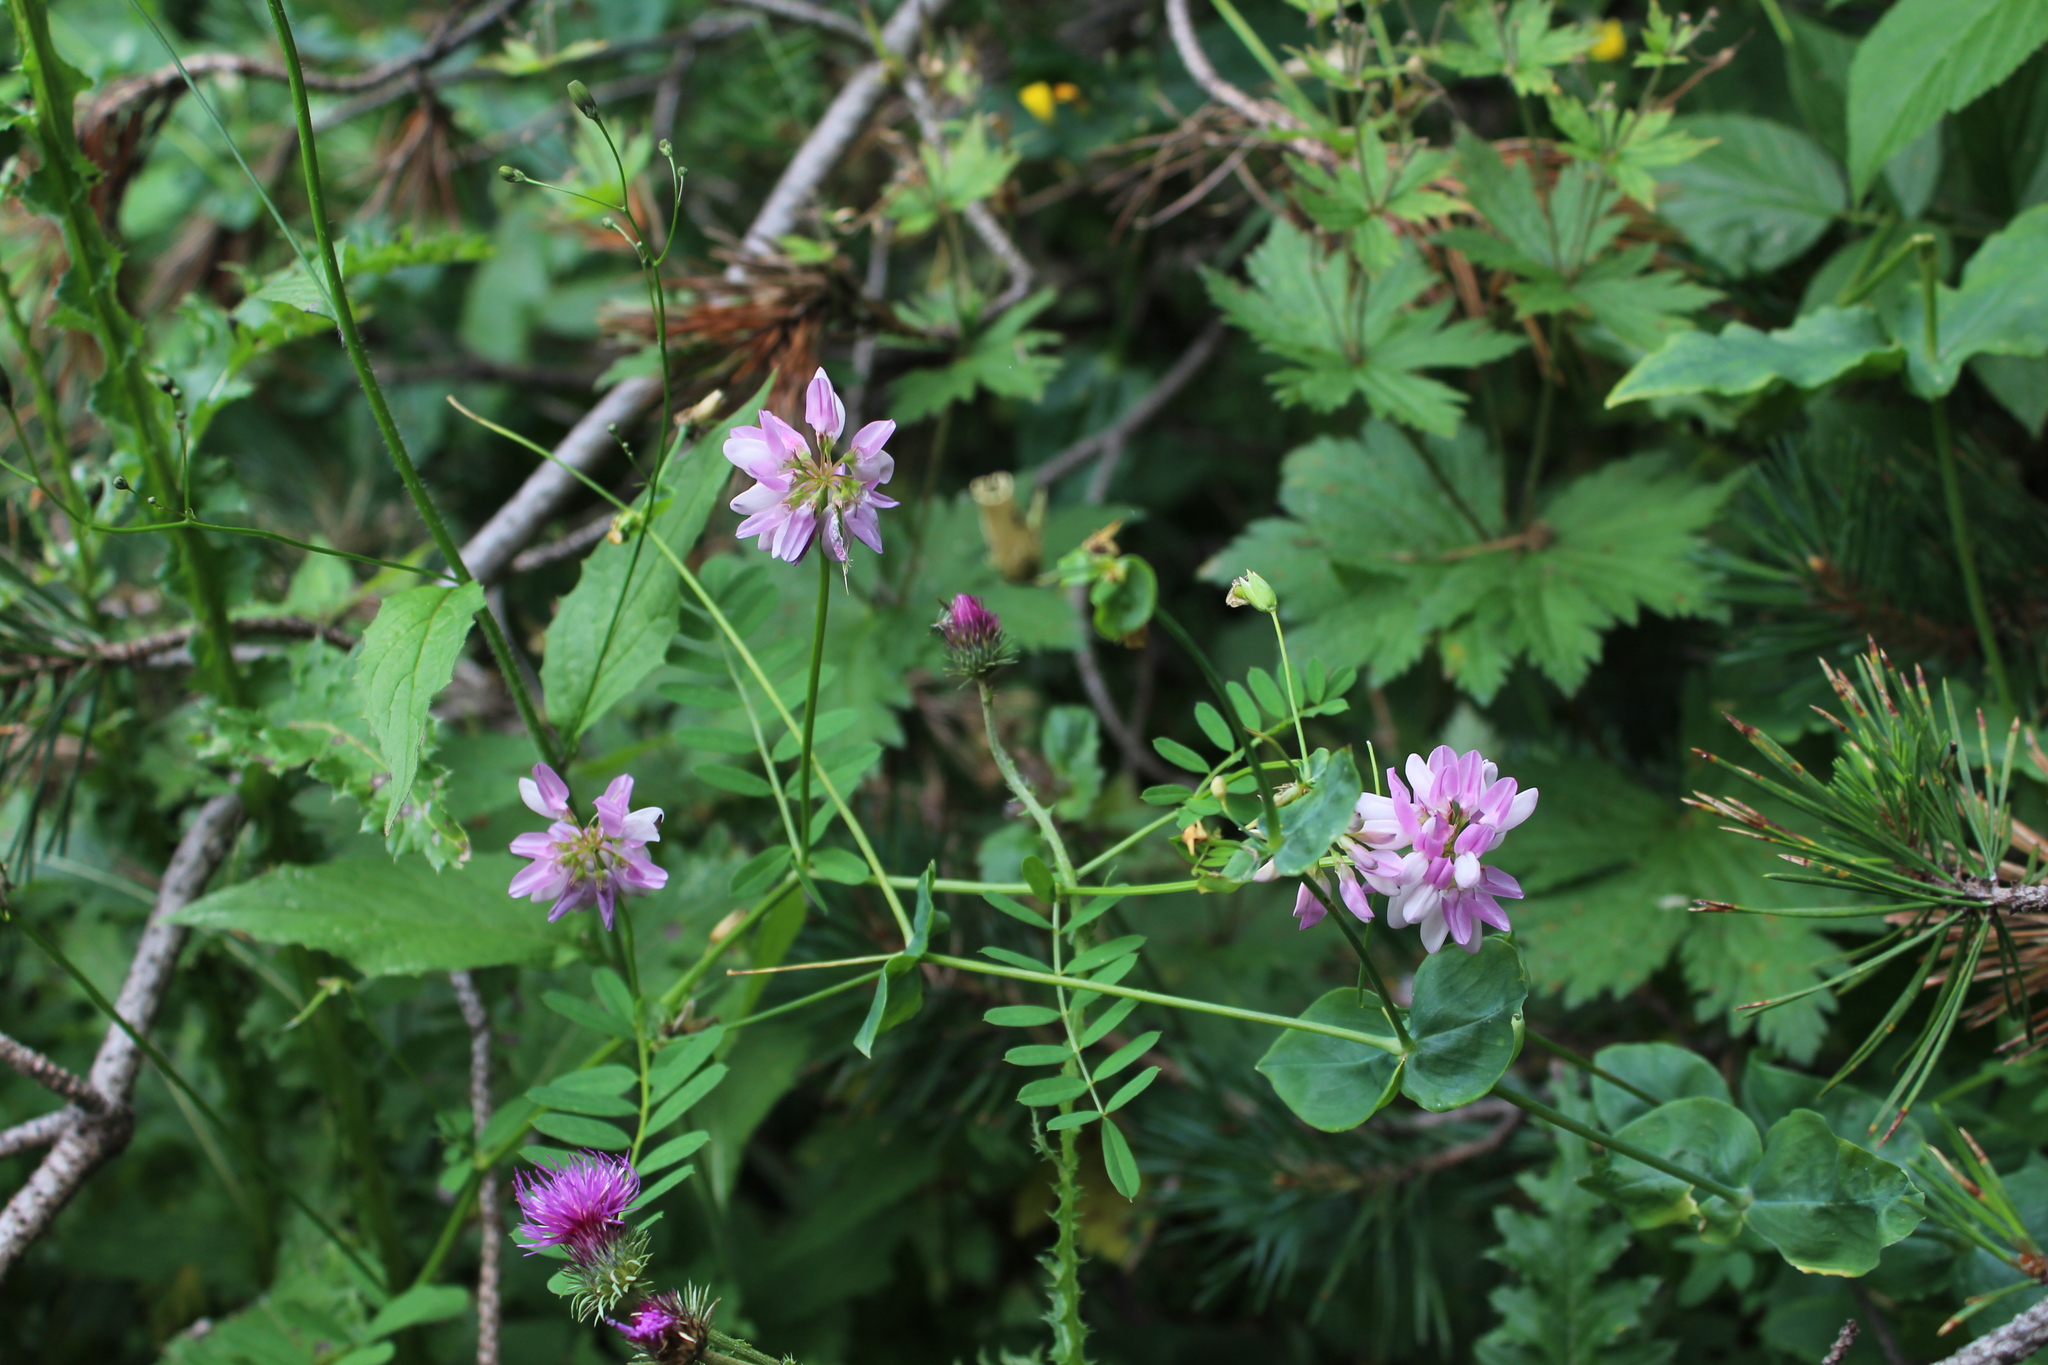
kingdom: Plantae
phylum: Tracheophyta
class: Magnoliopsida
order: Fabales
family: Fabaceae
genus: Coronilla
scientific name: Coronilla varia
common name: Crownvetch
